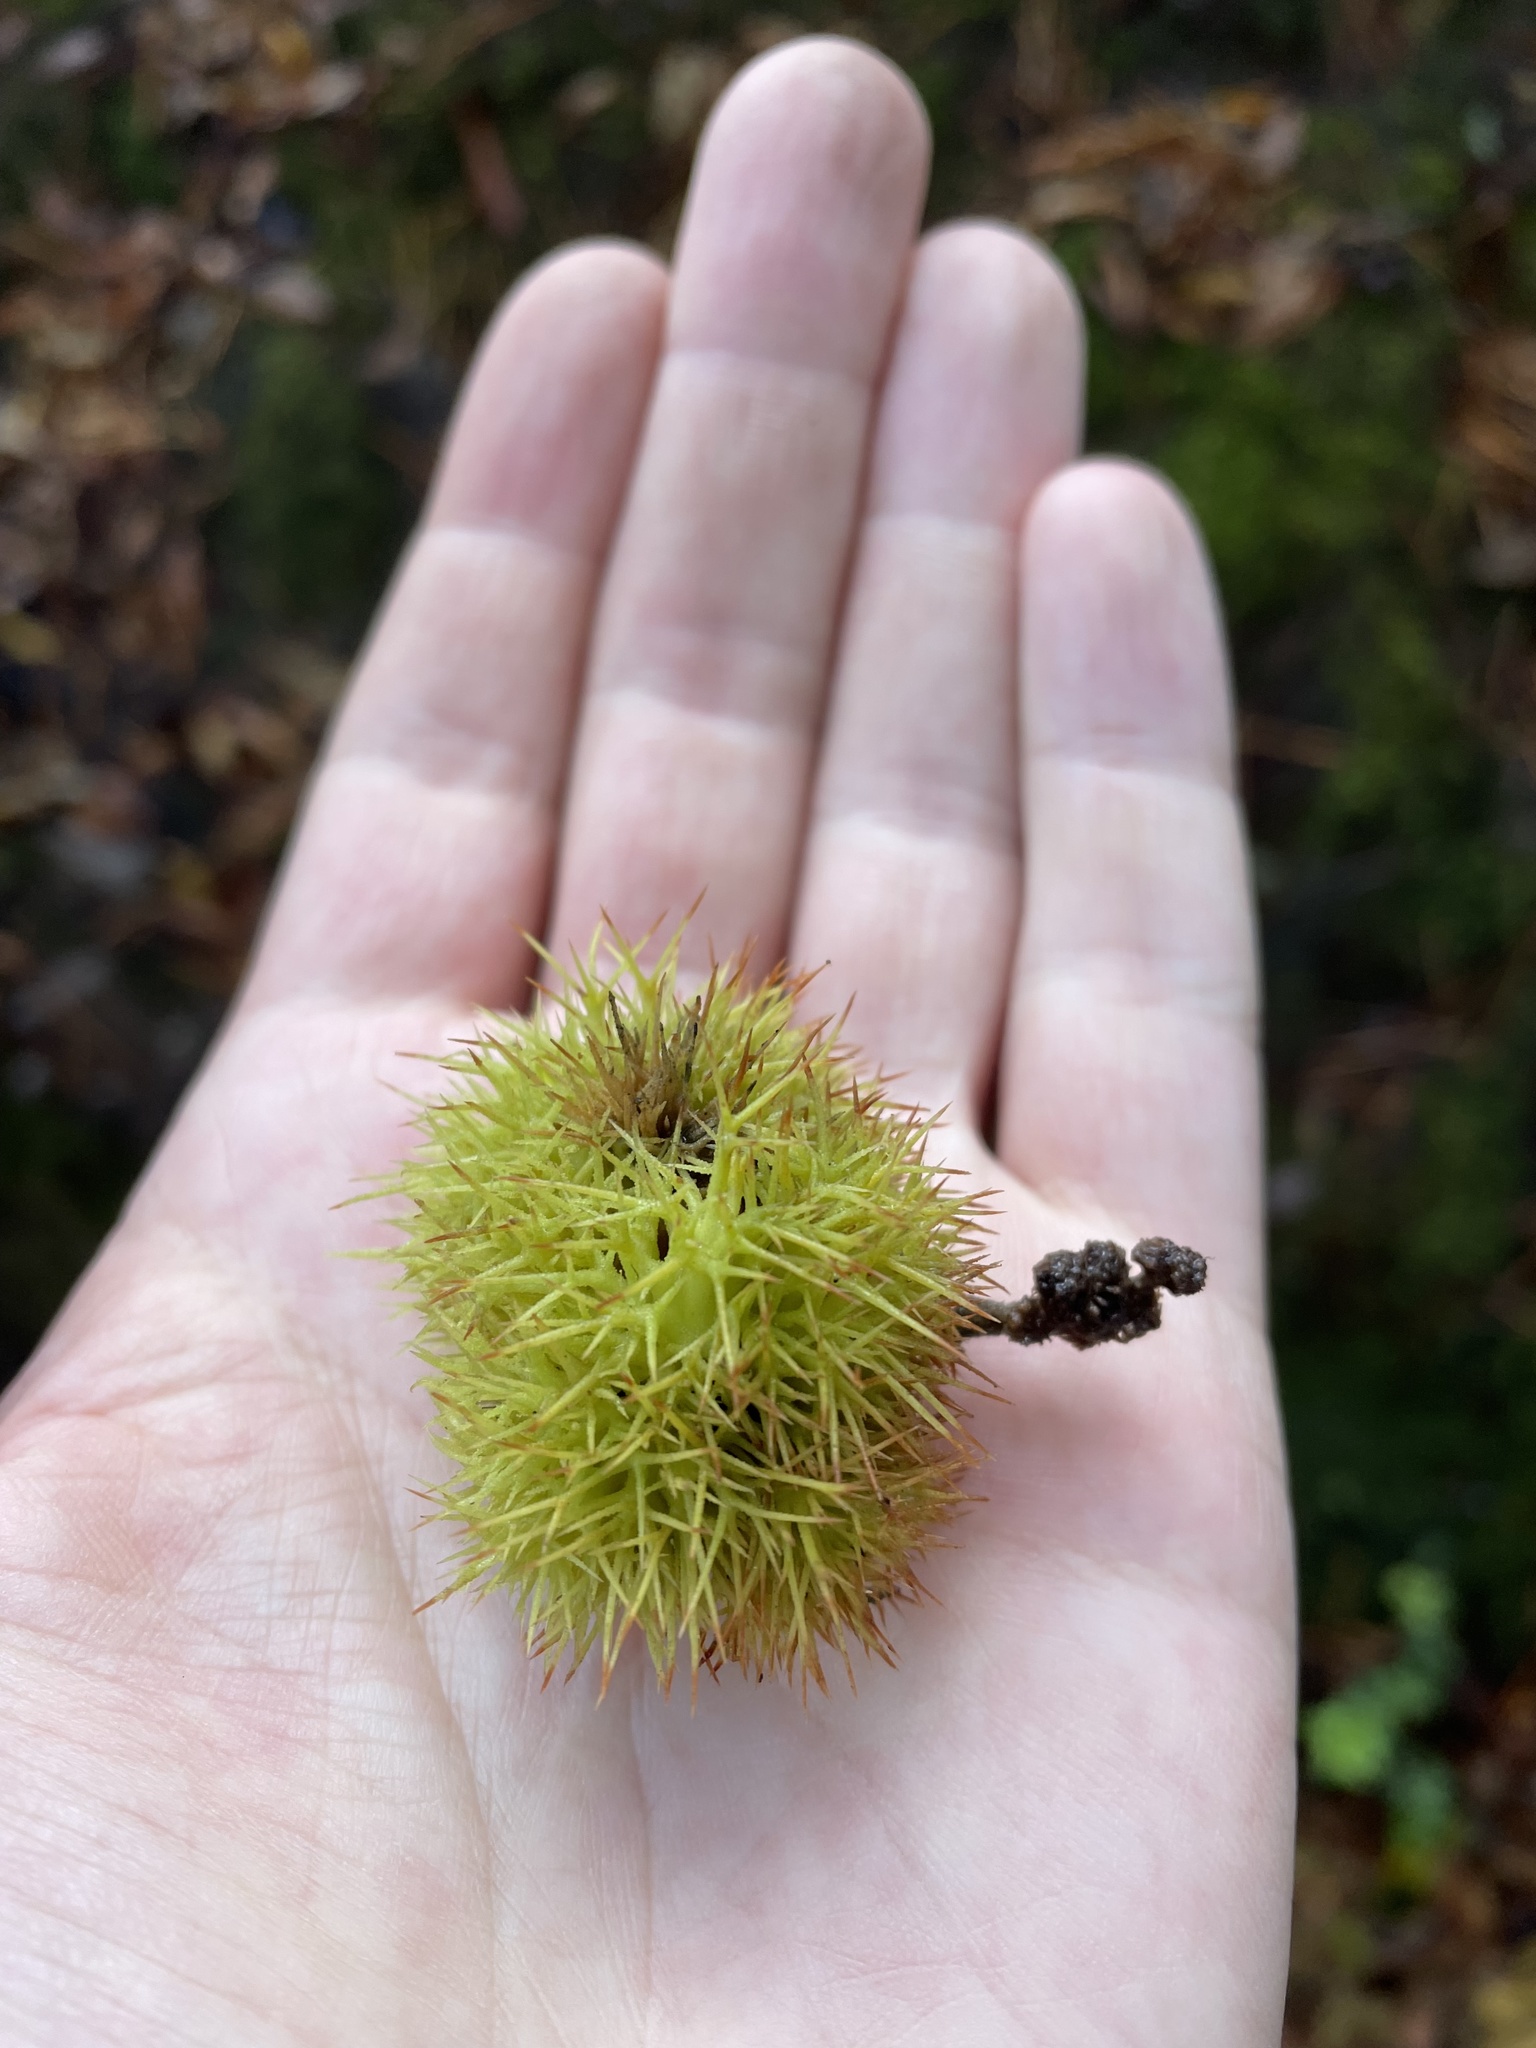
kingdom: Plantae
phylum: Tracheophyta
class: Magnoliopsida
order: Fagales
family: Fagaceae
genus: Chrysolepis
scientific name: Chrysolepis chrysophylla
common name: Giant chinquapin
